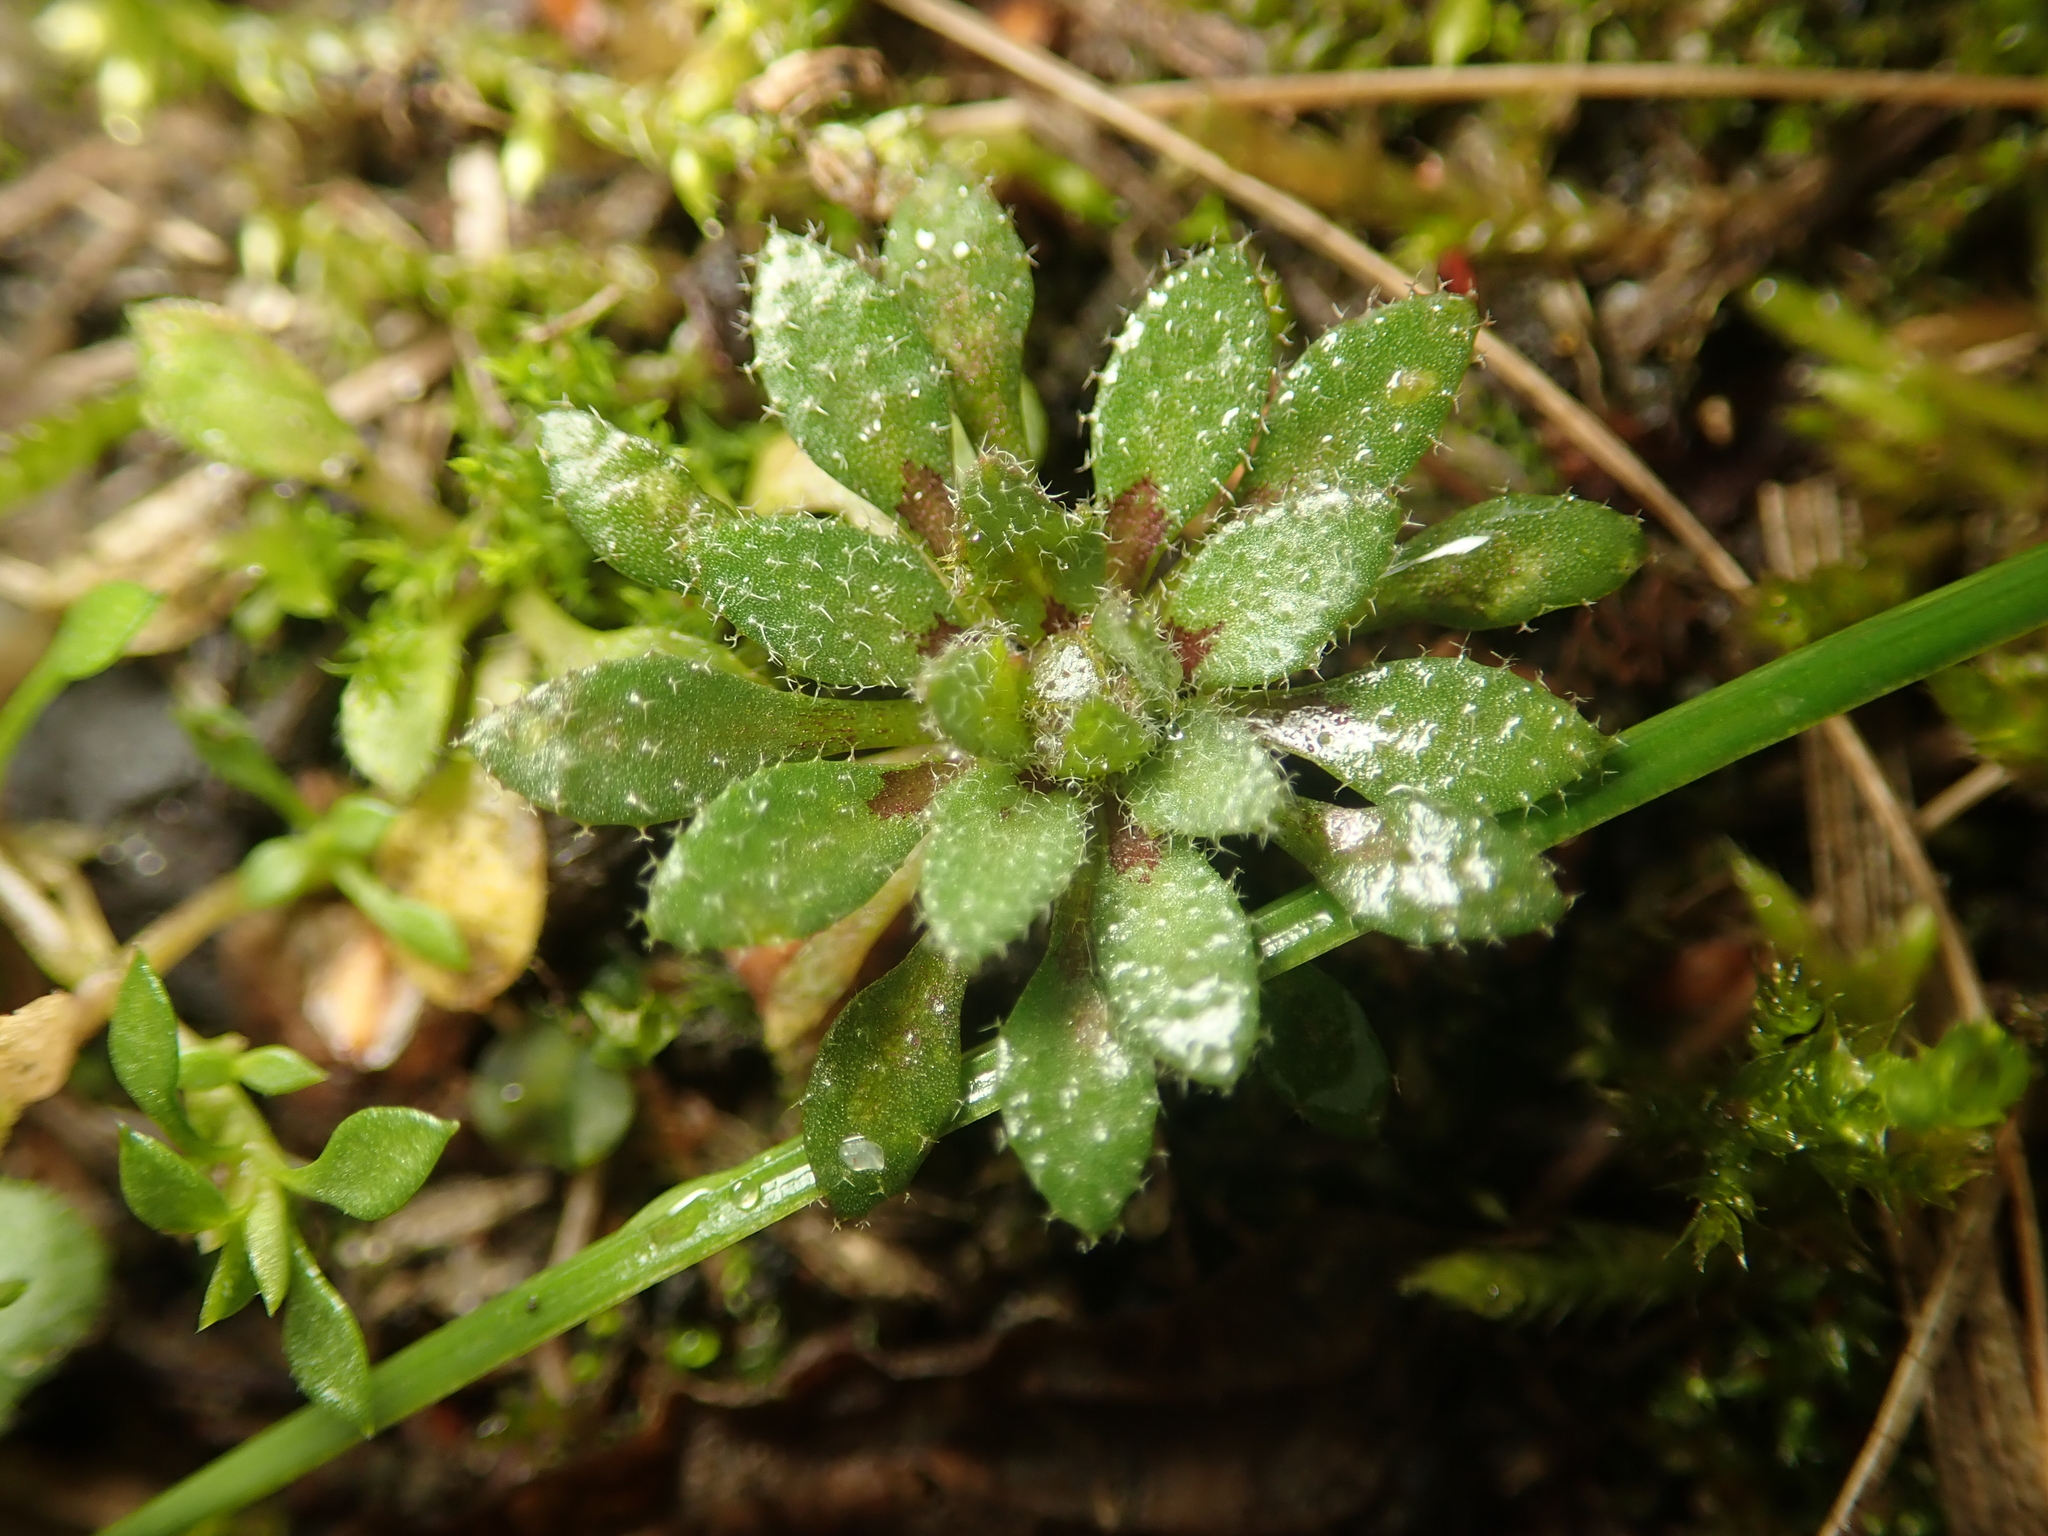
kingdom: Plantae
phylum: Tracheophyta
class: Magnoliopsida
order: Brassicales
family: Brassicaceae
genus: Draba
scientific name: Draba verna
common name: Spring draba
